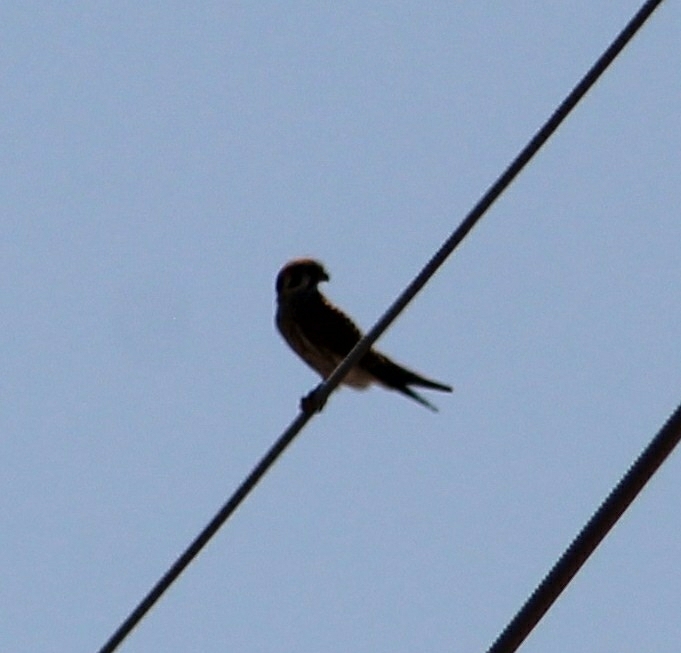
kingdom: Animalia
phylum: Chordata
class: Aves
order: Falconiformes
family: Falconidae
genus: Falco
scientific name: Falco sparverius
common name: American kestrel
